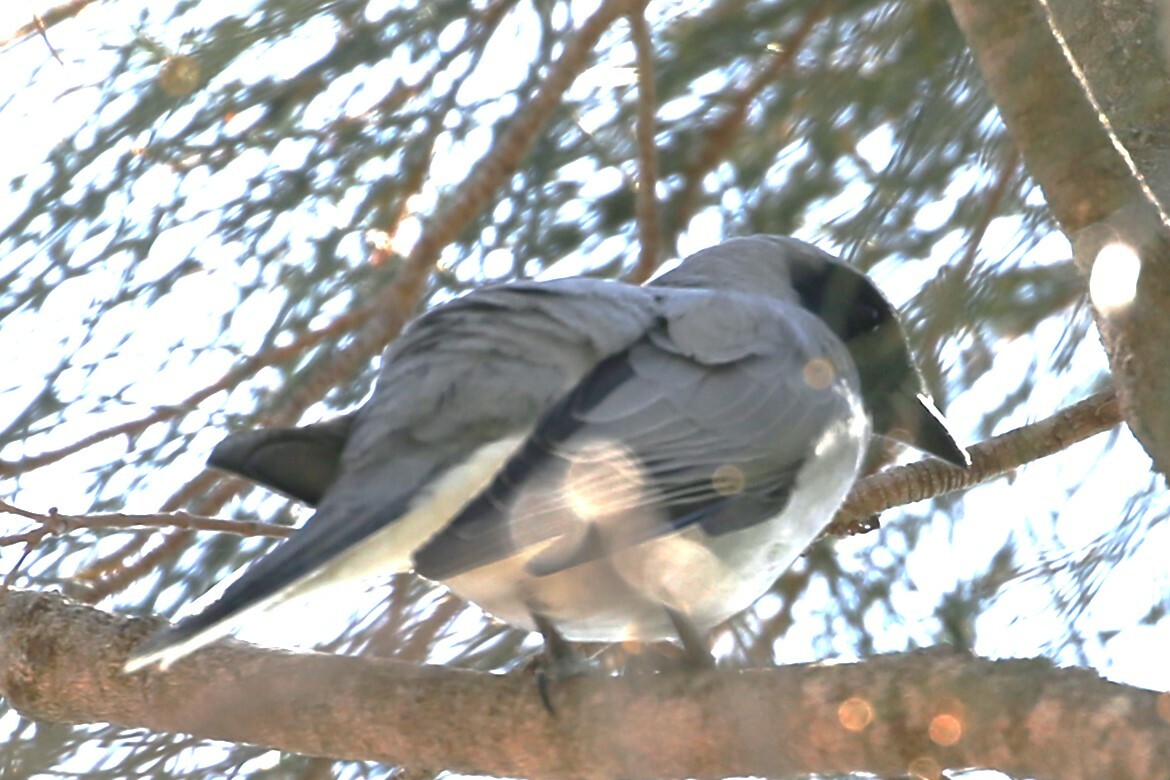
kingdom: Animalia
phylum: Chordata
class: Aves
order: Passeriformes
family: Campephagidae
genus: Coracina
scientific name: Coracina novaehollandiae
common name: Black-faced cuckooshrike
